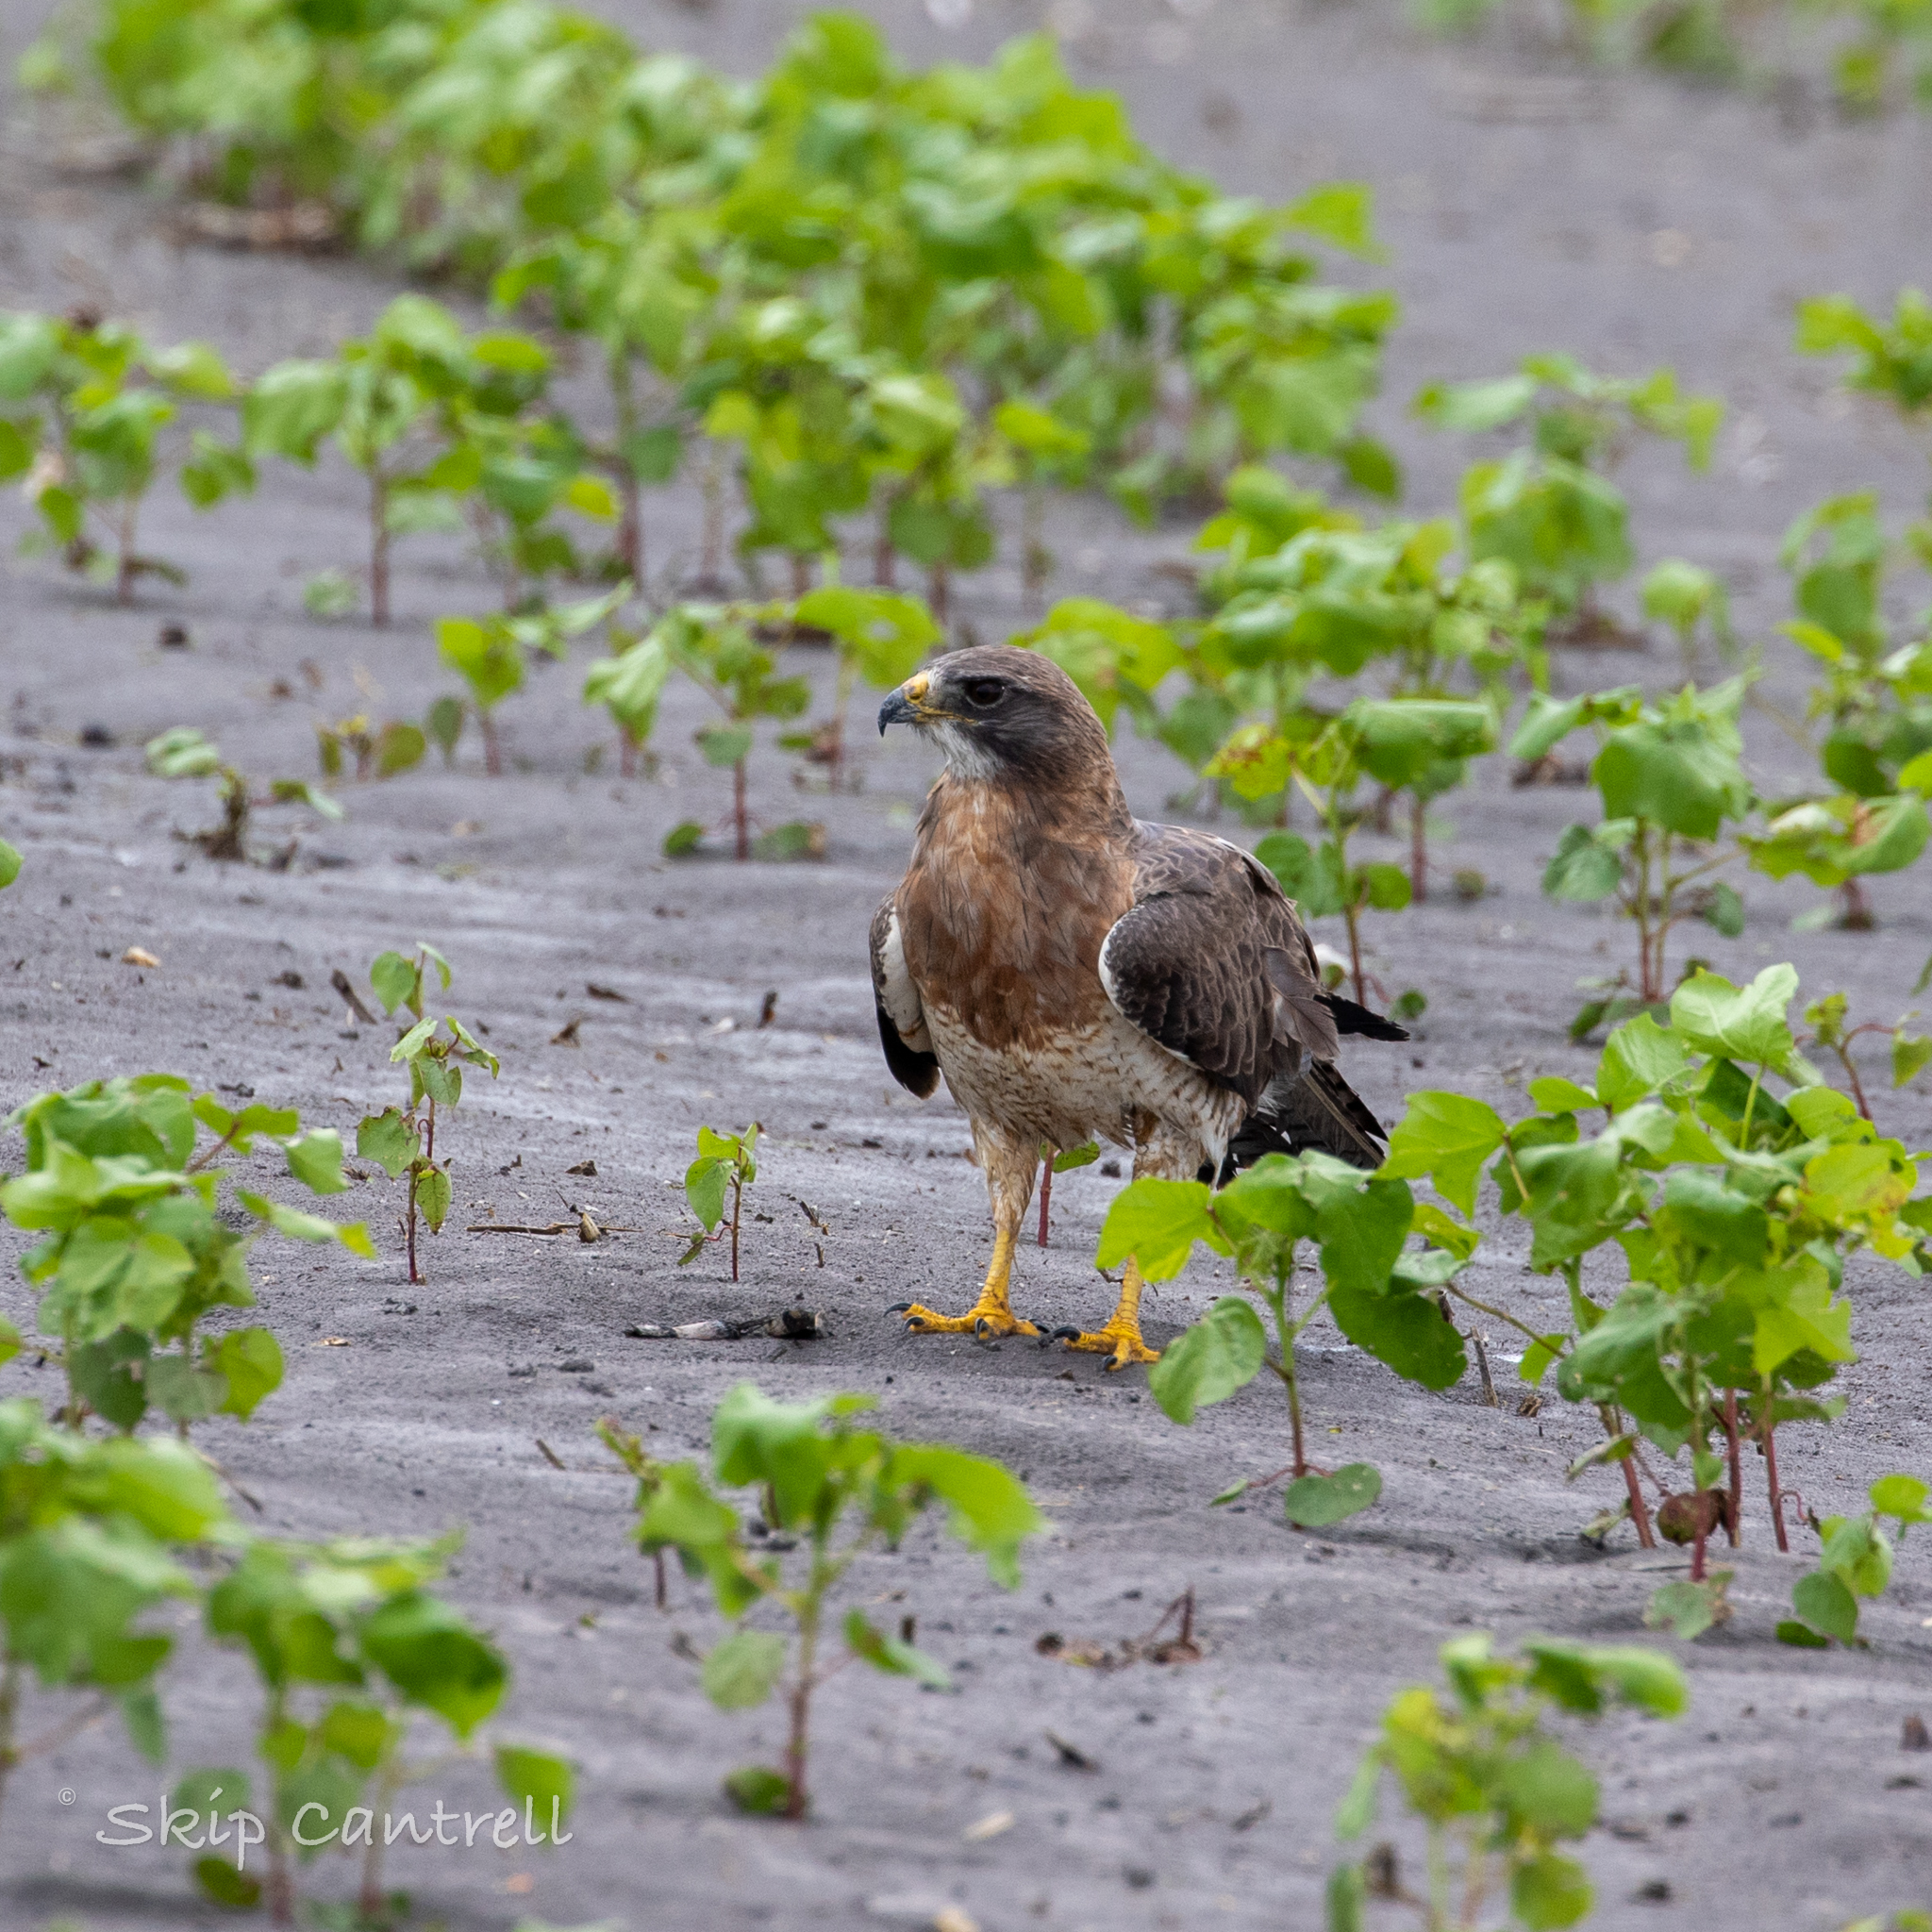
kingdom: Animalia
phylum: Chordata
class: Aves
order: Accipitriformes
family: Accipitridae
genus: Buteo
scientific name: Buteo swainsoni
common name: Swainson's hawk
